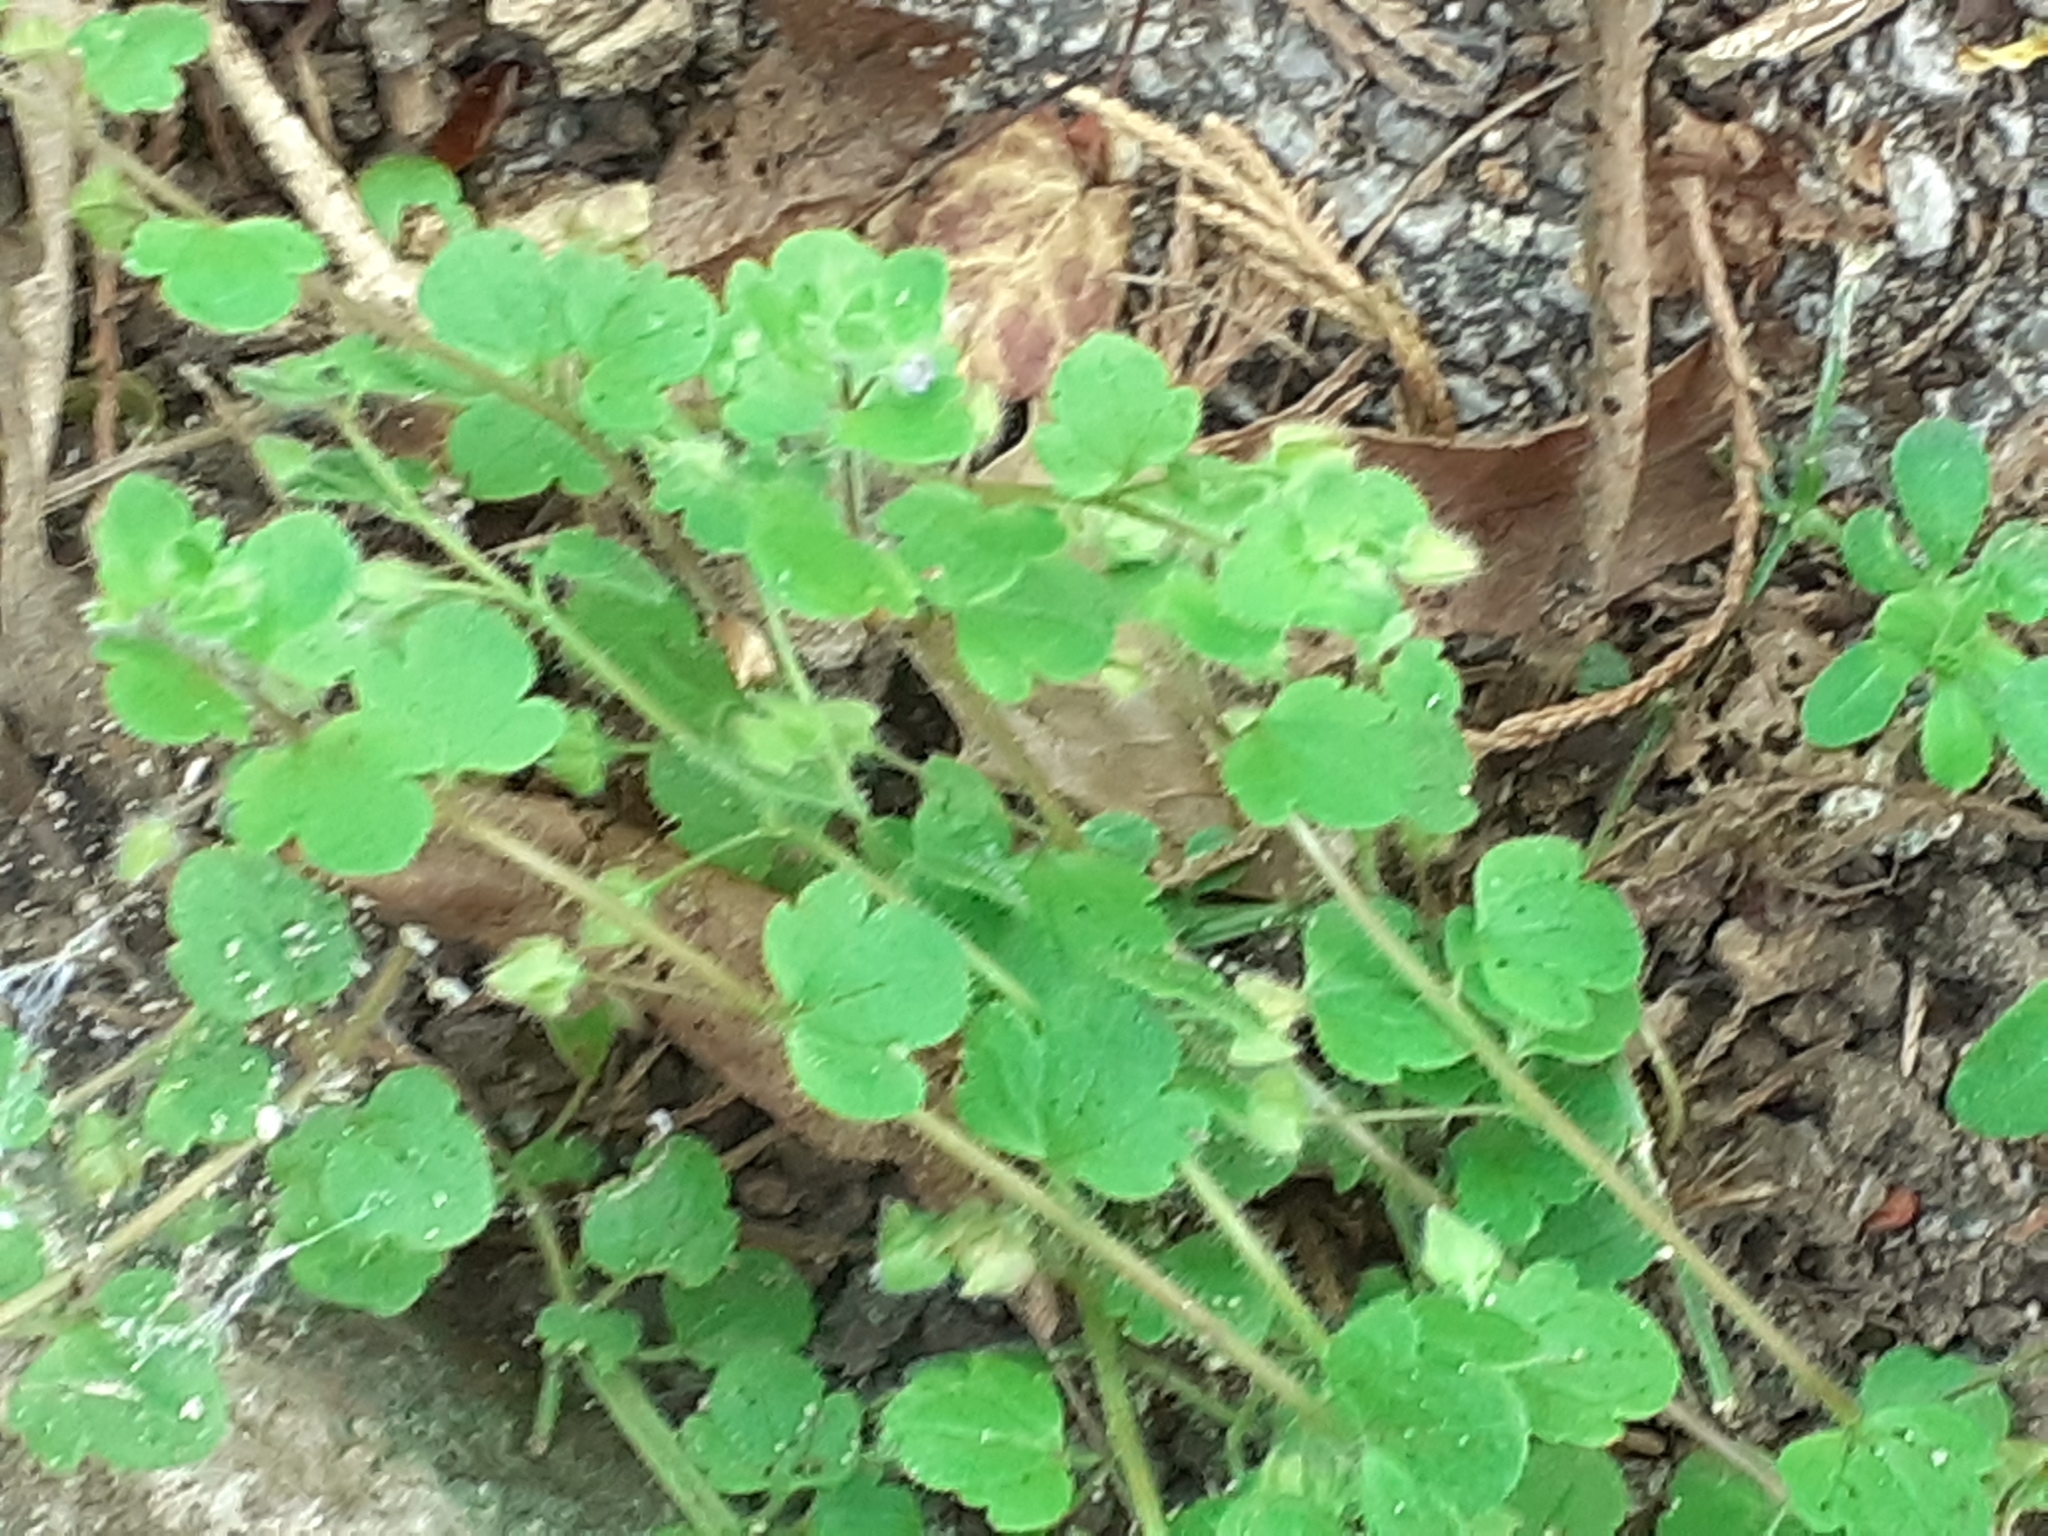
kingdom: Plantae
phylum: Tracheophyta
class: Magnoliopsida
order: Lamiales
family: Plantaginaceae
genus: Veronica
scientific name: Veronica hederifolia
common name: Ivy-leaved speedwell
